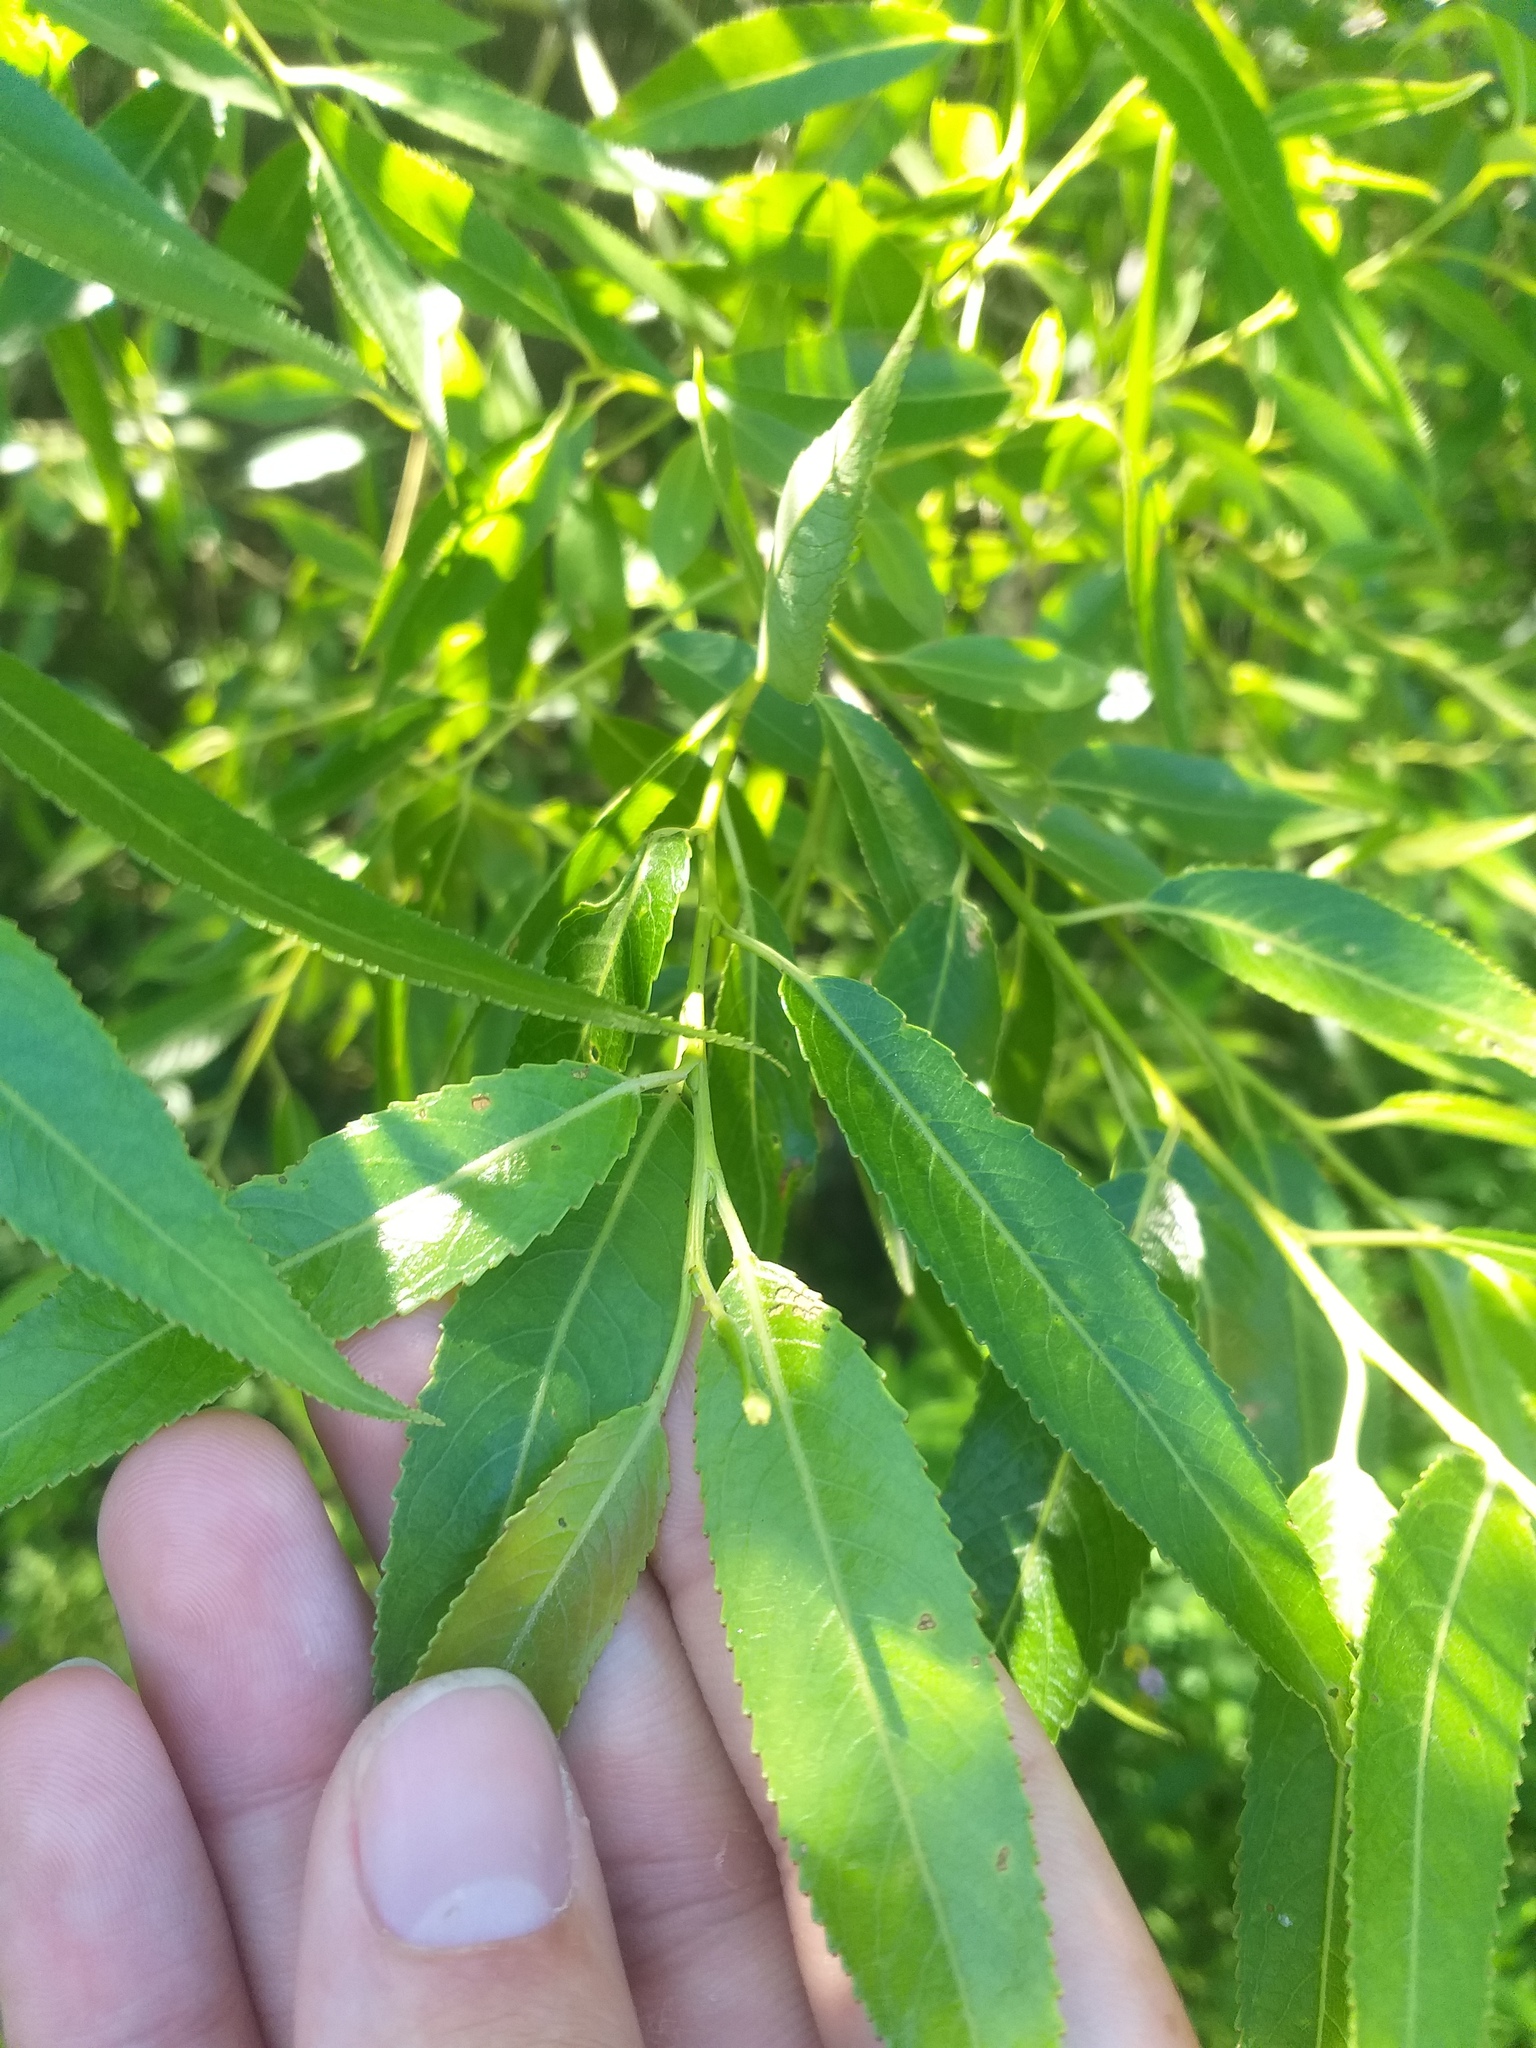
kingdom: Plantae
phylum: Tracheophyta
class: Magnoliopsida
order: Malpighiales
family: Salicaceae
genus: Salix
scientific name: Salix alba
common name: White willow
